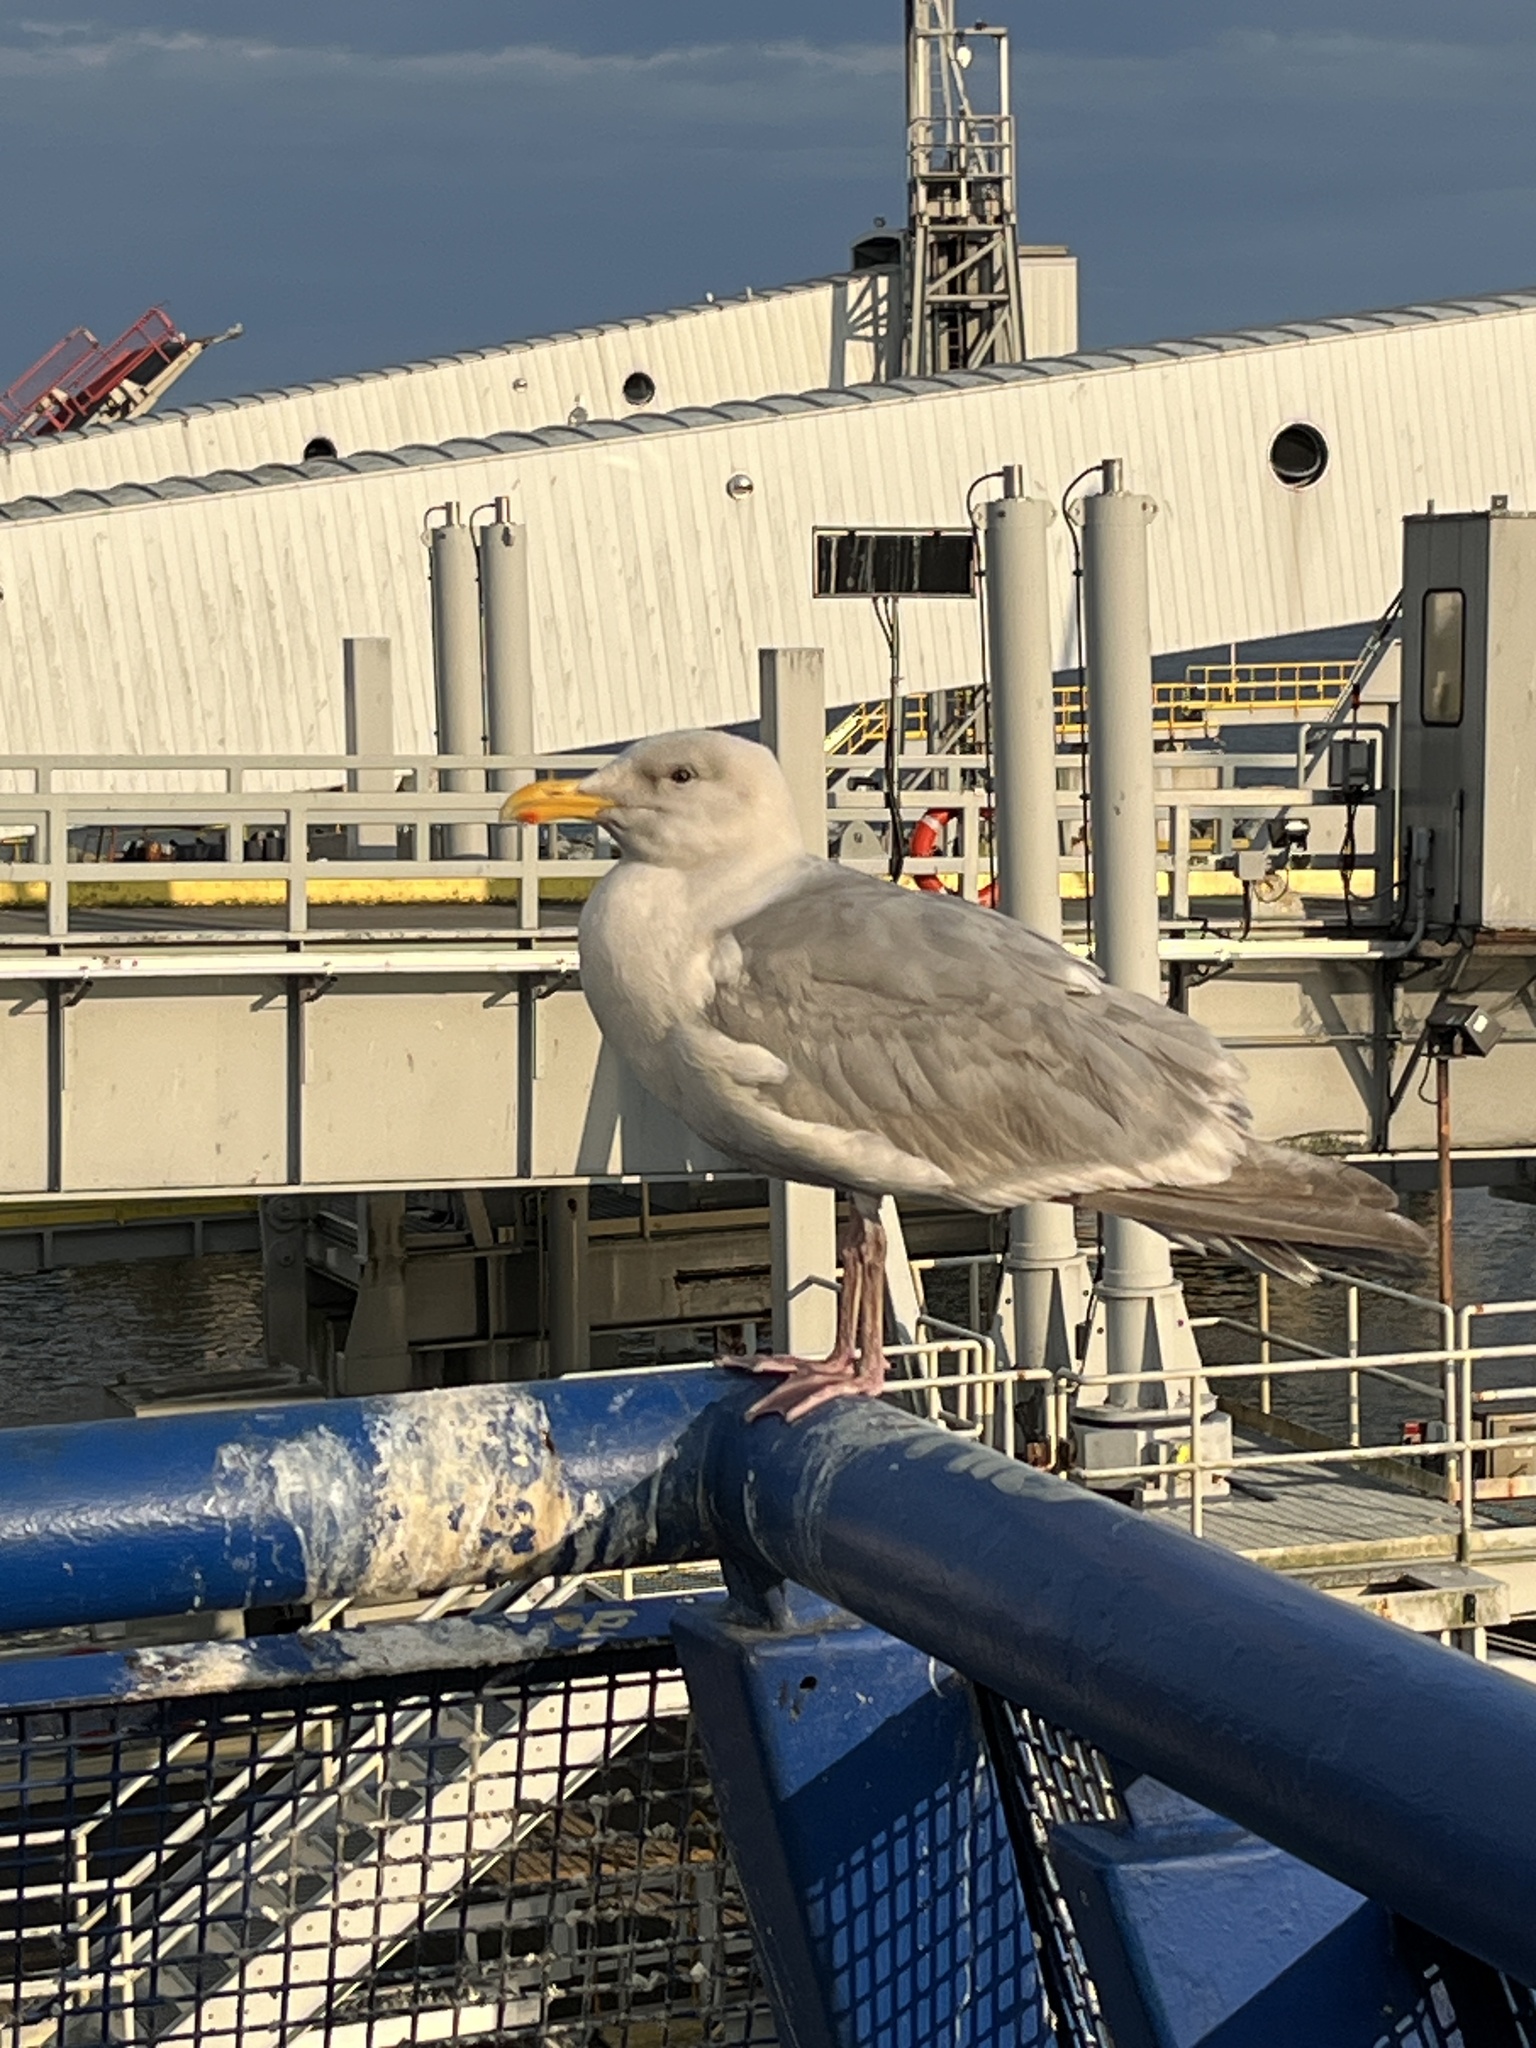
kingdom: Animalia
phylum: Chordata
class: Aves
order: Charadriiformes
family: Laridae
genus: Larus
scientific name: Larus
